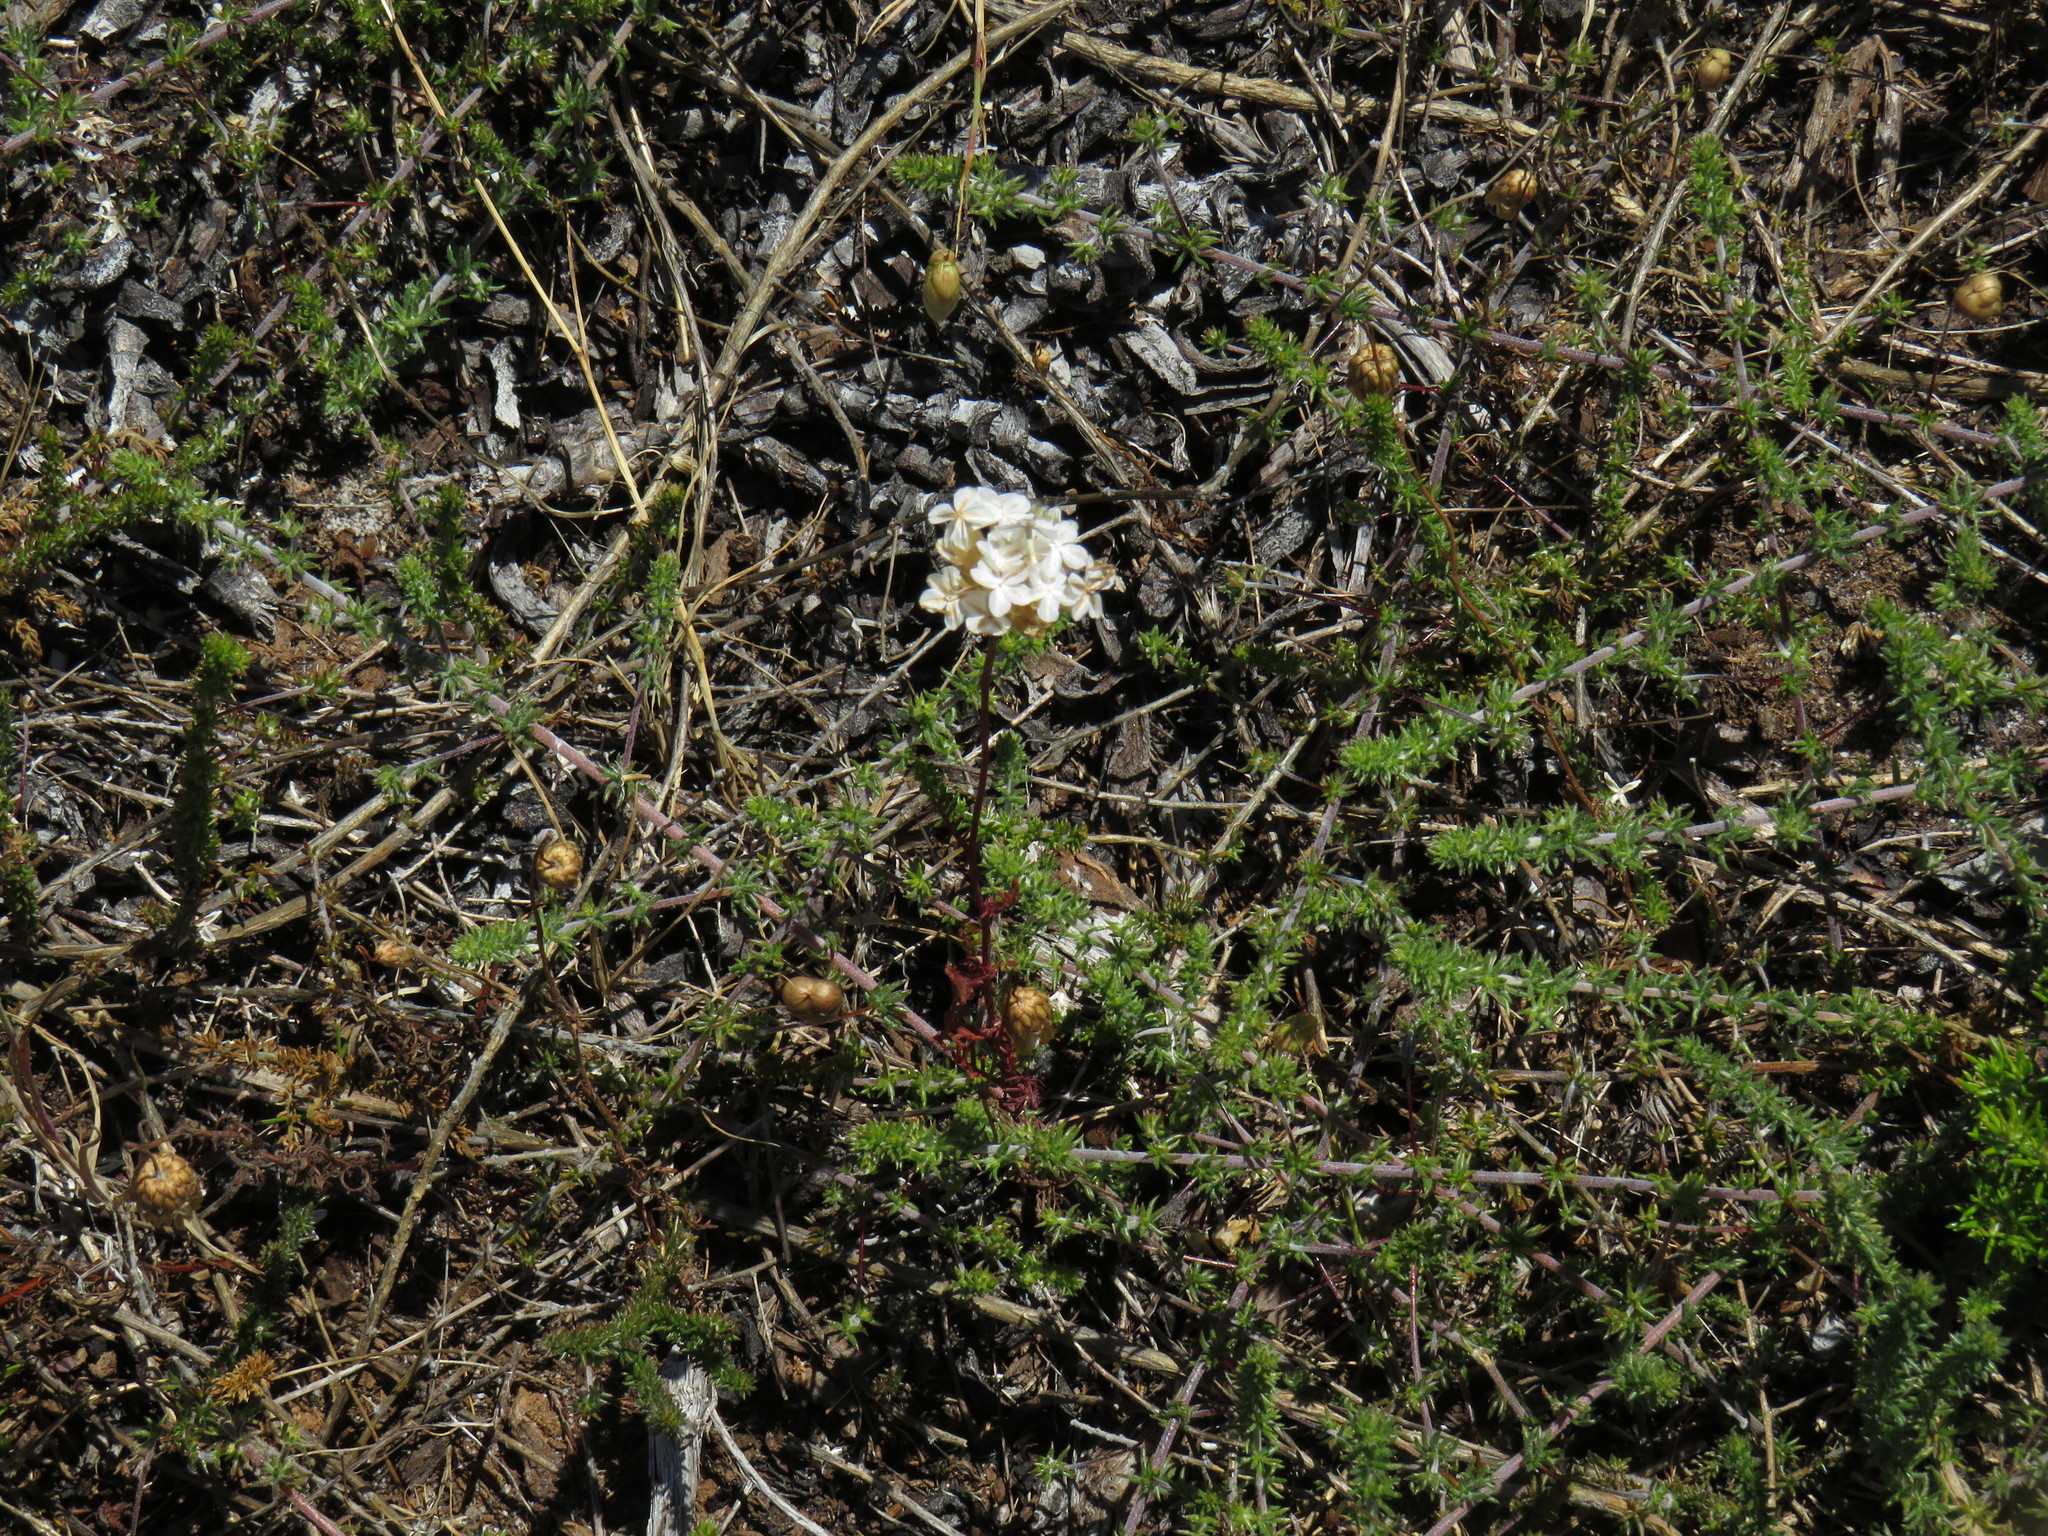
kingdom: Plantae
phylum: Tracheophyta
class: Magnoliopsida
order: Asterales
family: Asteraceae
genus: Ursinia
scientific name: Ursinia anthemoides
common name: Ursinia
